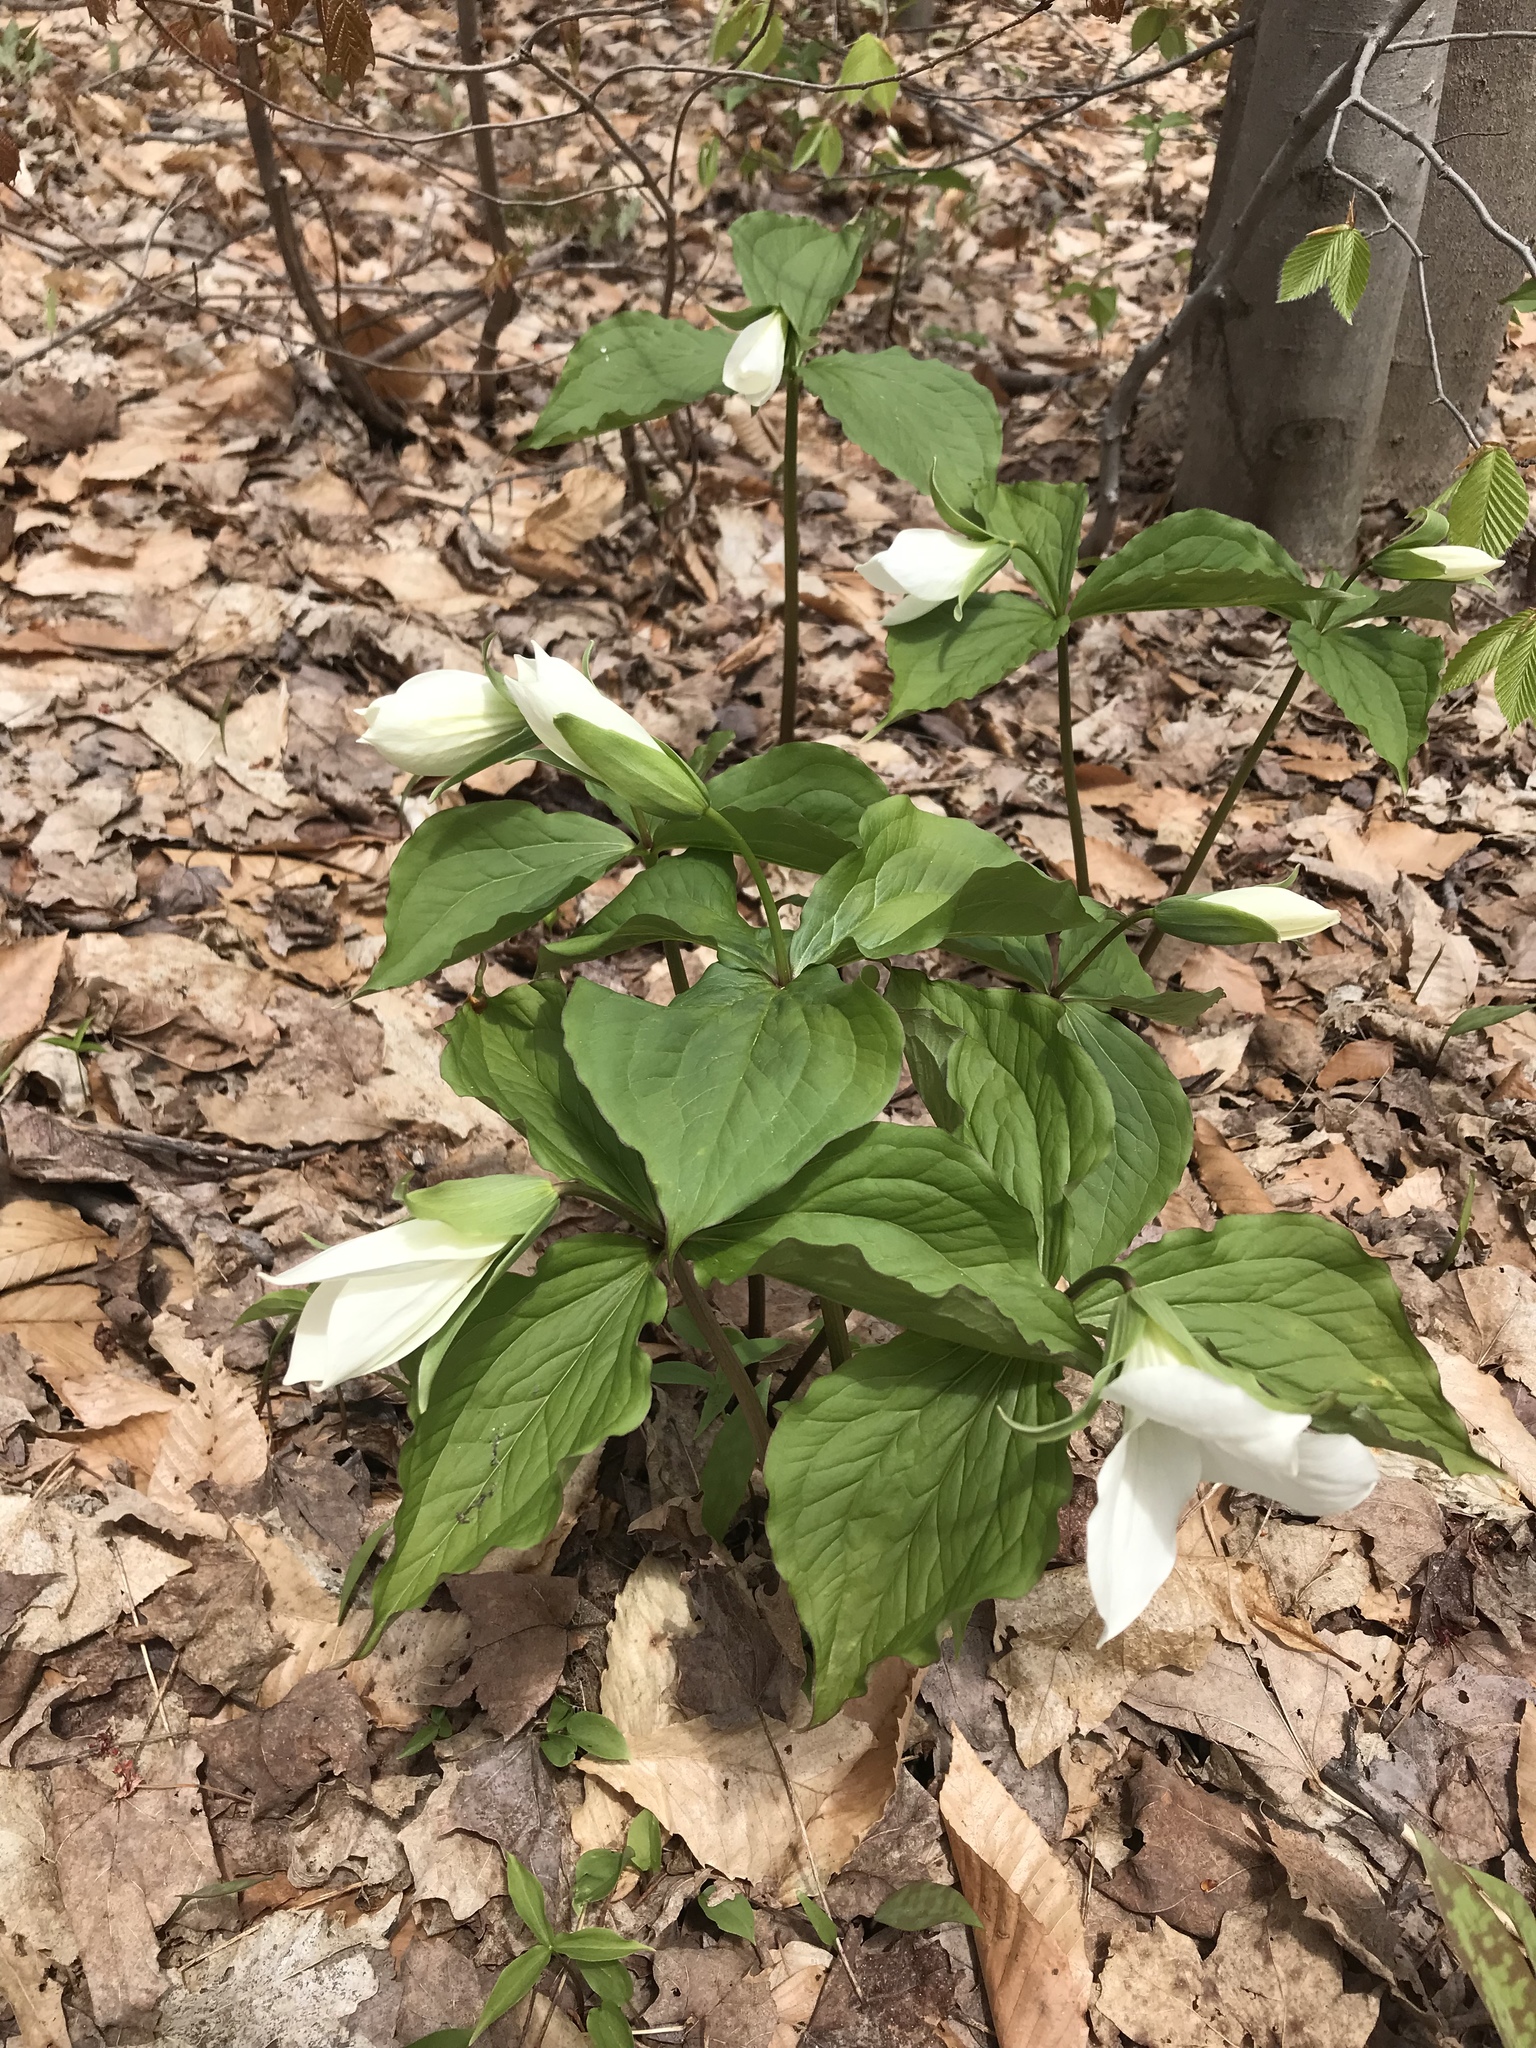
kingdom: Plantae
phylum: Tracheophyta
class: Liliopsida
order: Liliales
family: Melanthiaceae
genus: Trillium
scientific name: Trillium grandiflorum
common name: Great white trillium
